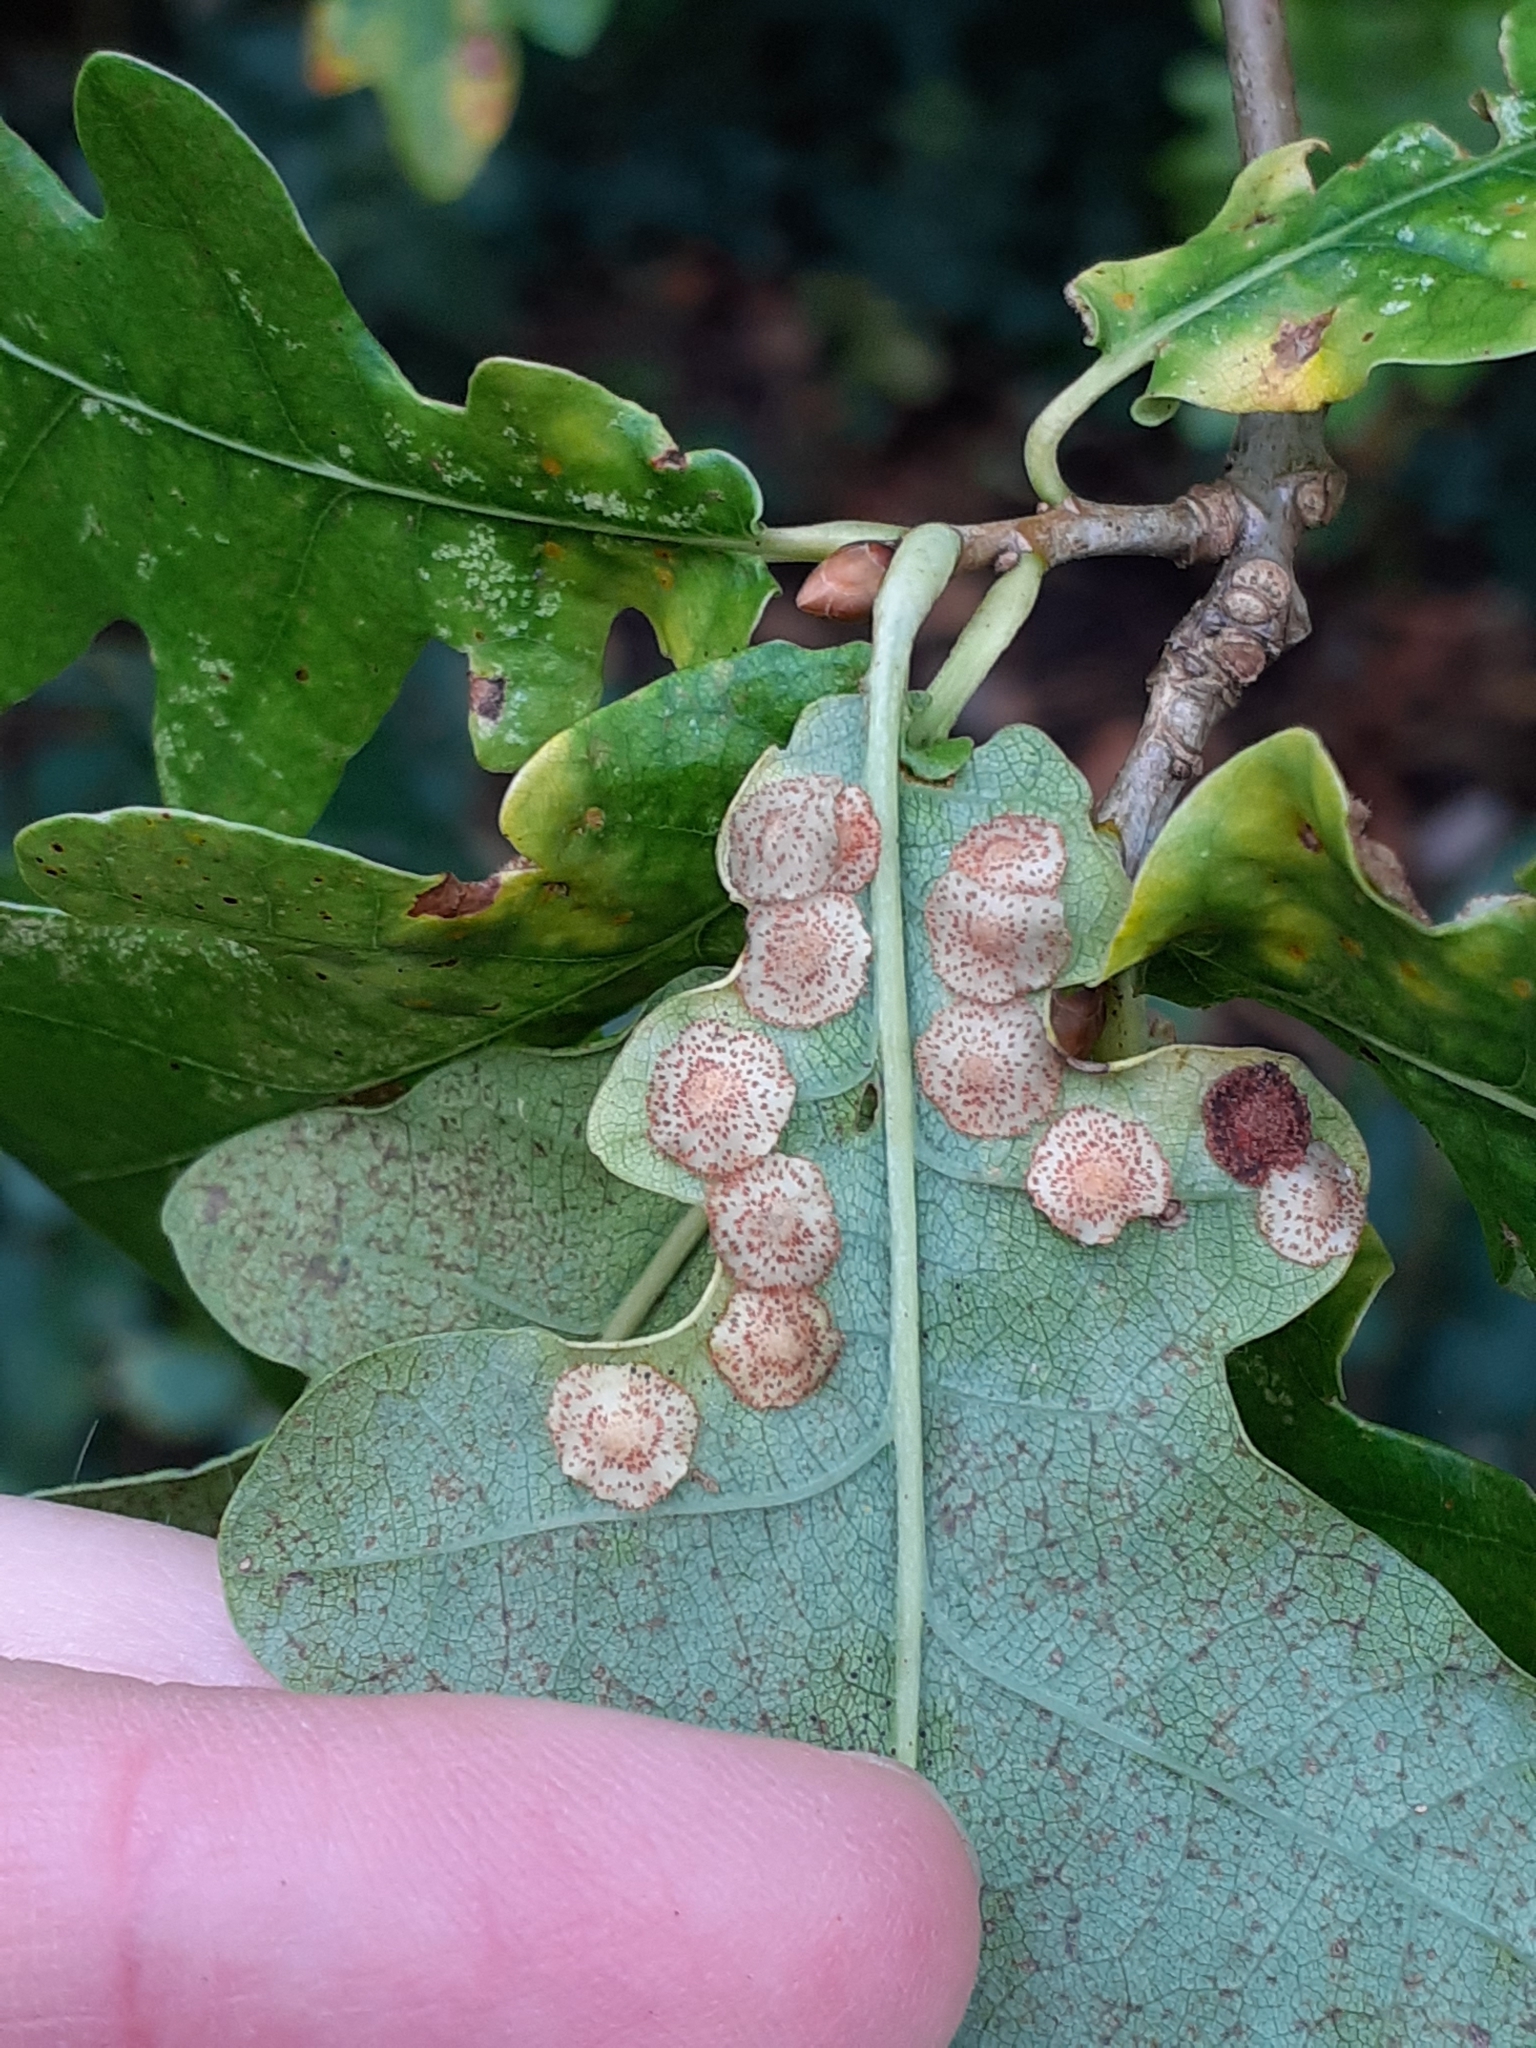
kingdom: Animalia
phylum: Arthropoda
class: Insecta
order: Hymenoptera
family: Cynipidae
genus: Neuroterus
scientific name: Neuroterus quercusbaccarum
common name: Common spangle gall
